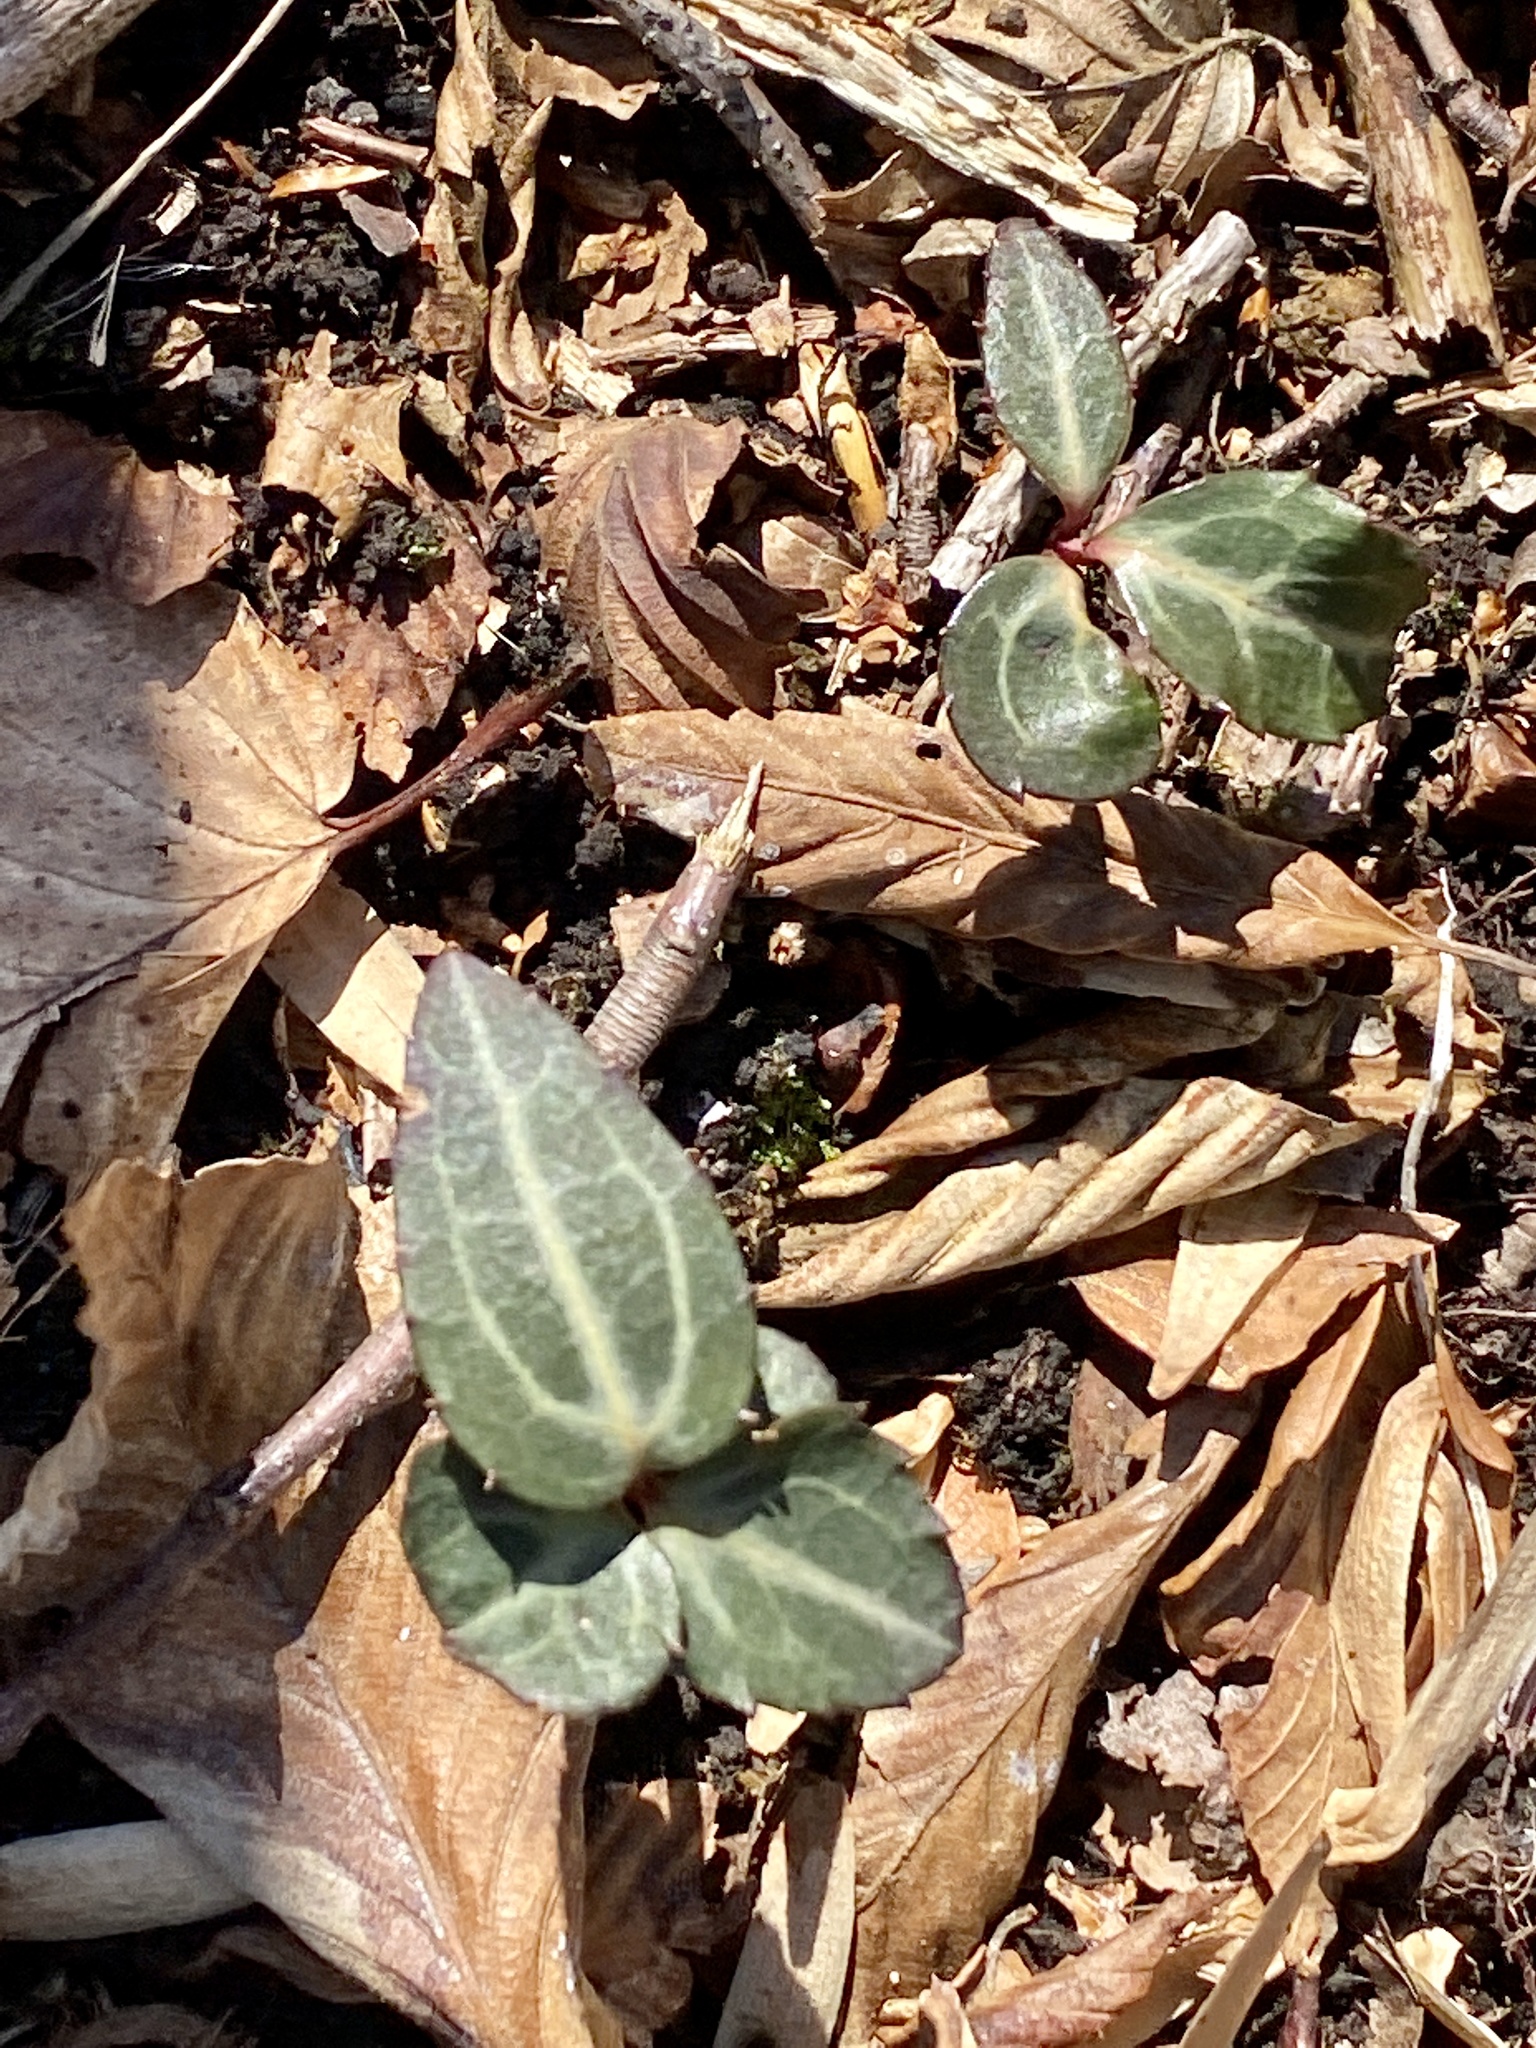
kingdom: Plantae
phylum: Tracheophyta
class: Magnoliopsida
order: Ericales
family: Ericaceae
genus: Chimaphila
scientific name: Chimaphila maculata
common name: Spotted pipsissewa
